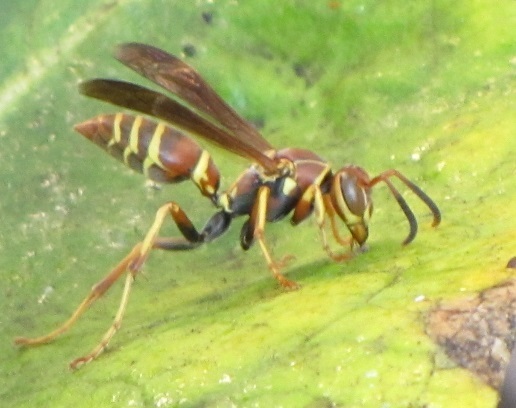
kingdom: Animalia
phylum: Arthropoda
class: Insecta
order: Hymenoptera
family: Eumenidae
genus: Polistes
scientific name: Polistes dorsalis
